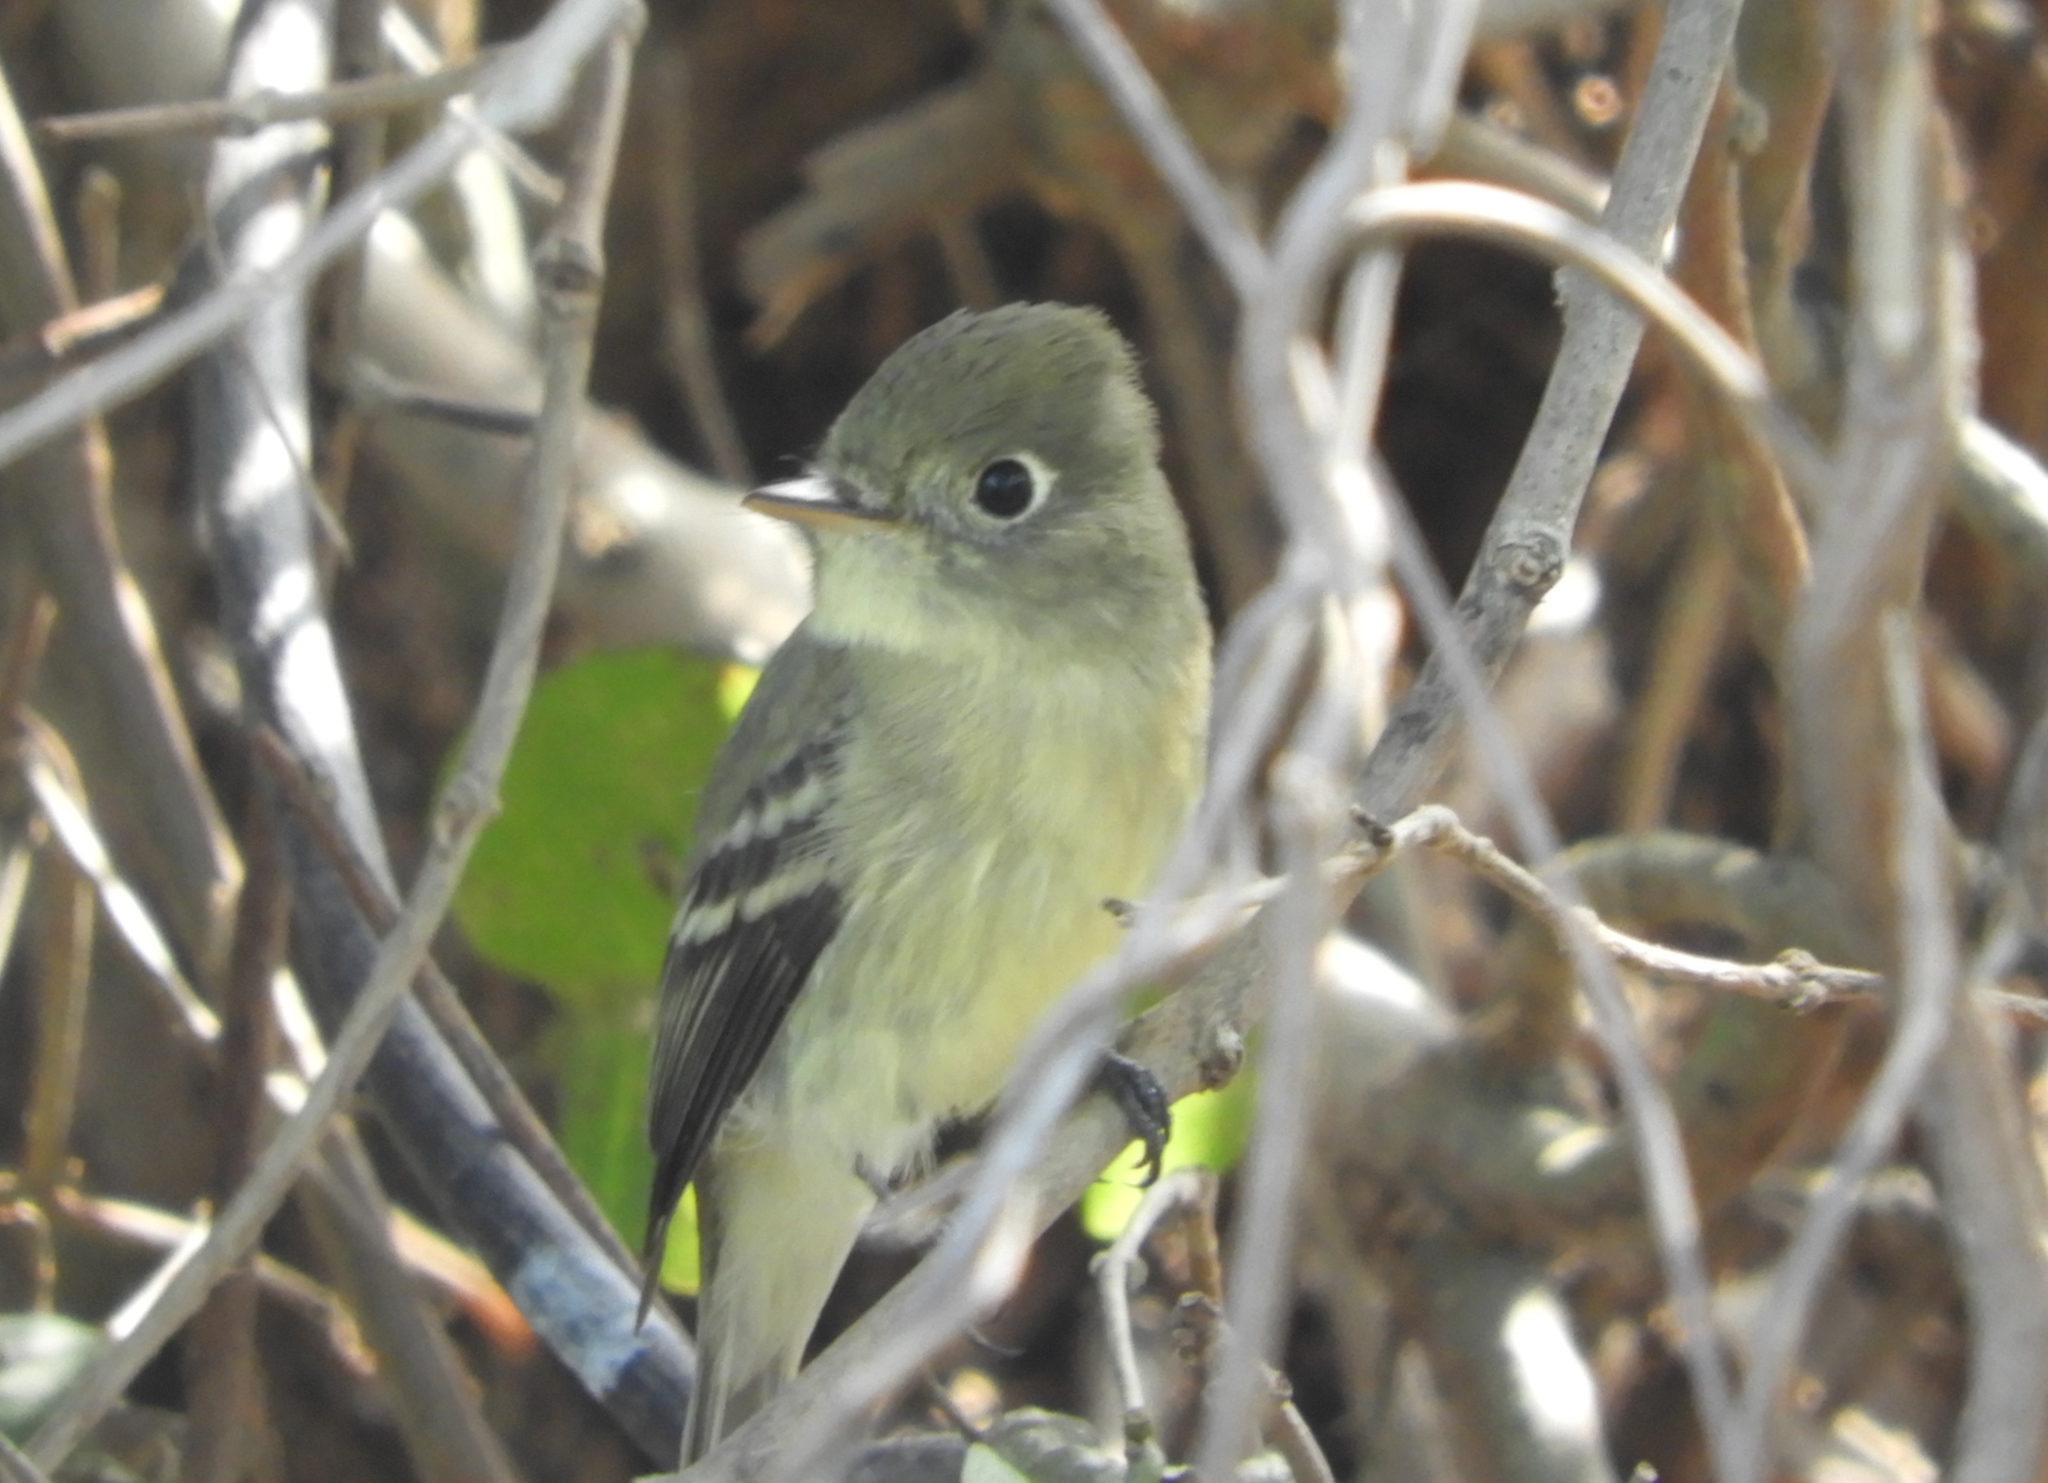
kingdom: Animalia
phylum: Chordata
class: Aves
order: Passeriformes
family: Tyrannidae
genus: Empidonax
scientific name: Empidonax
